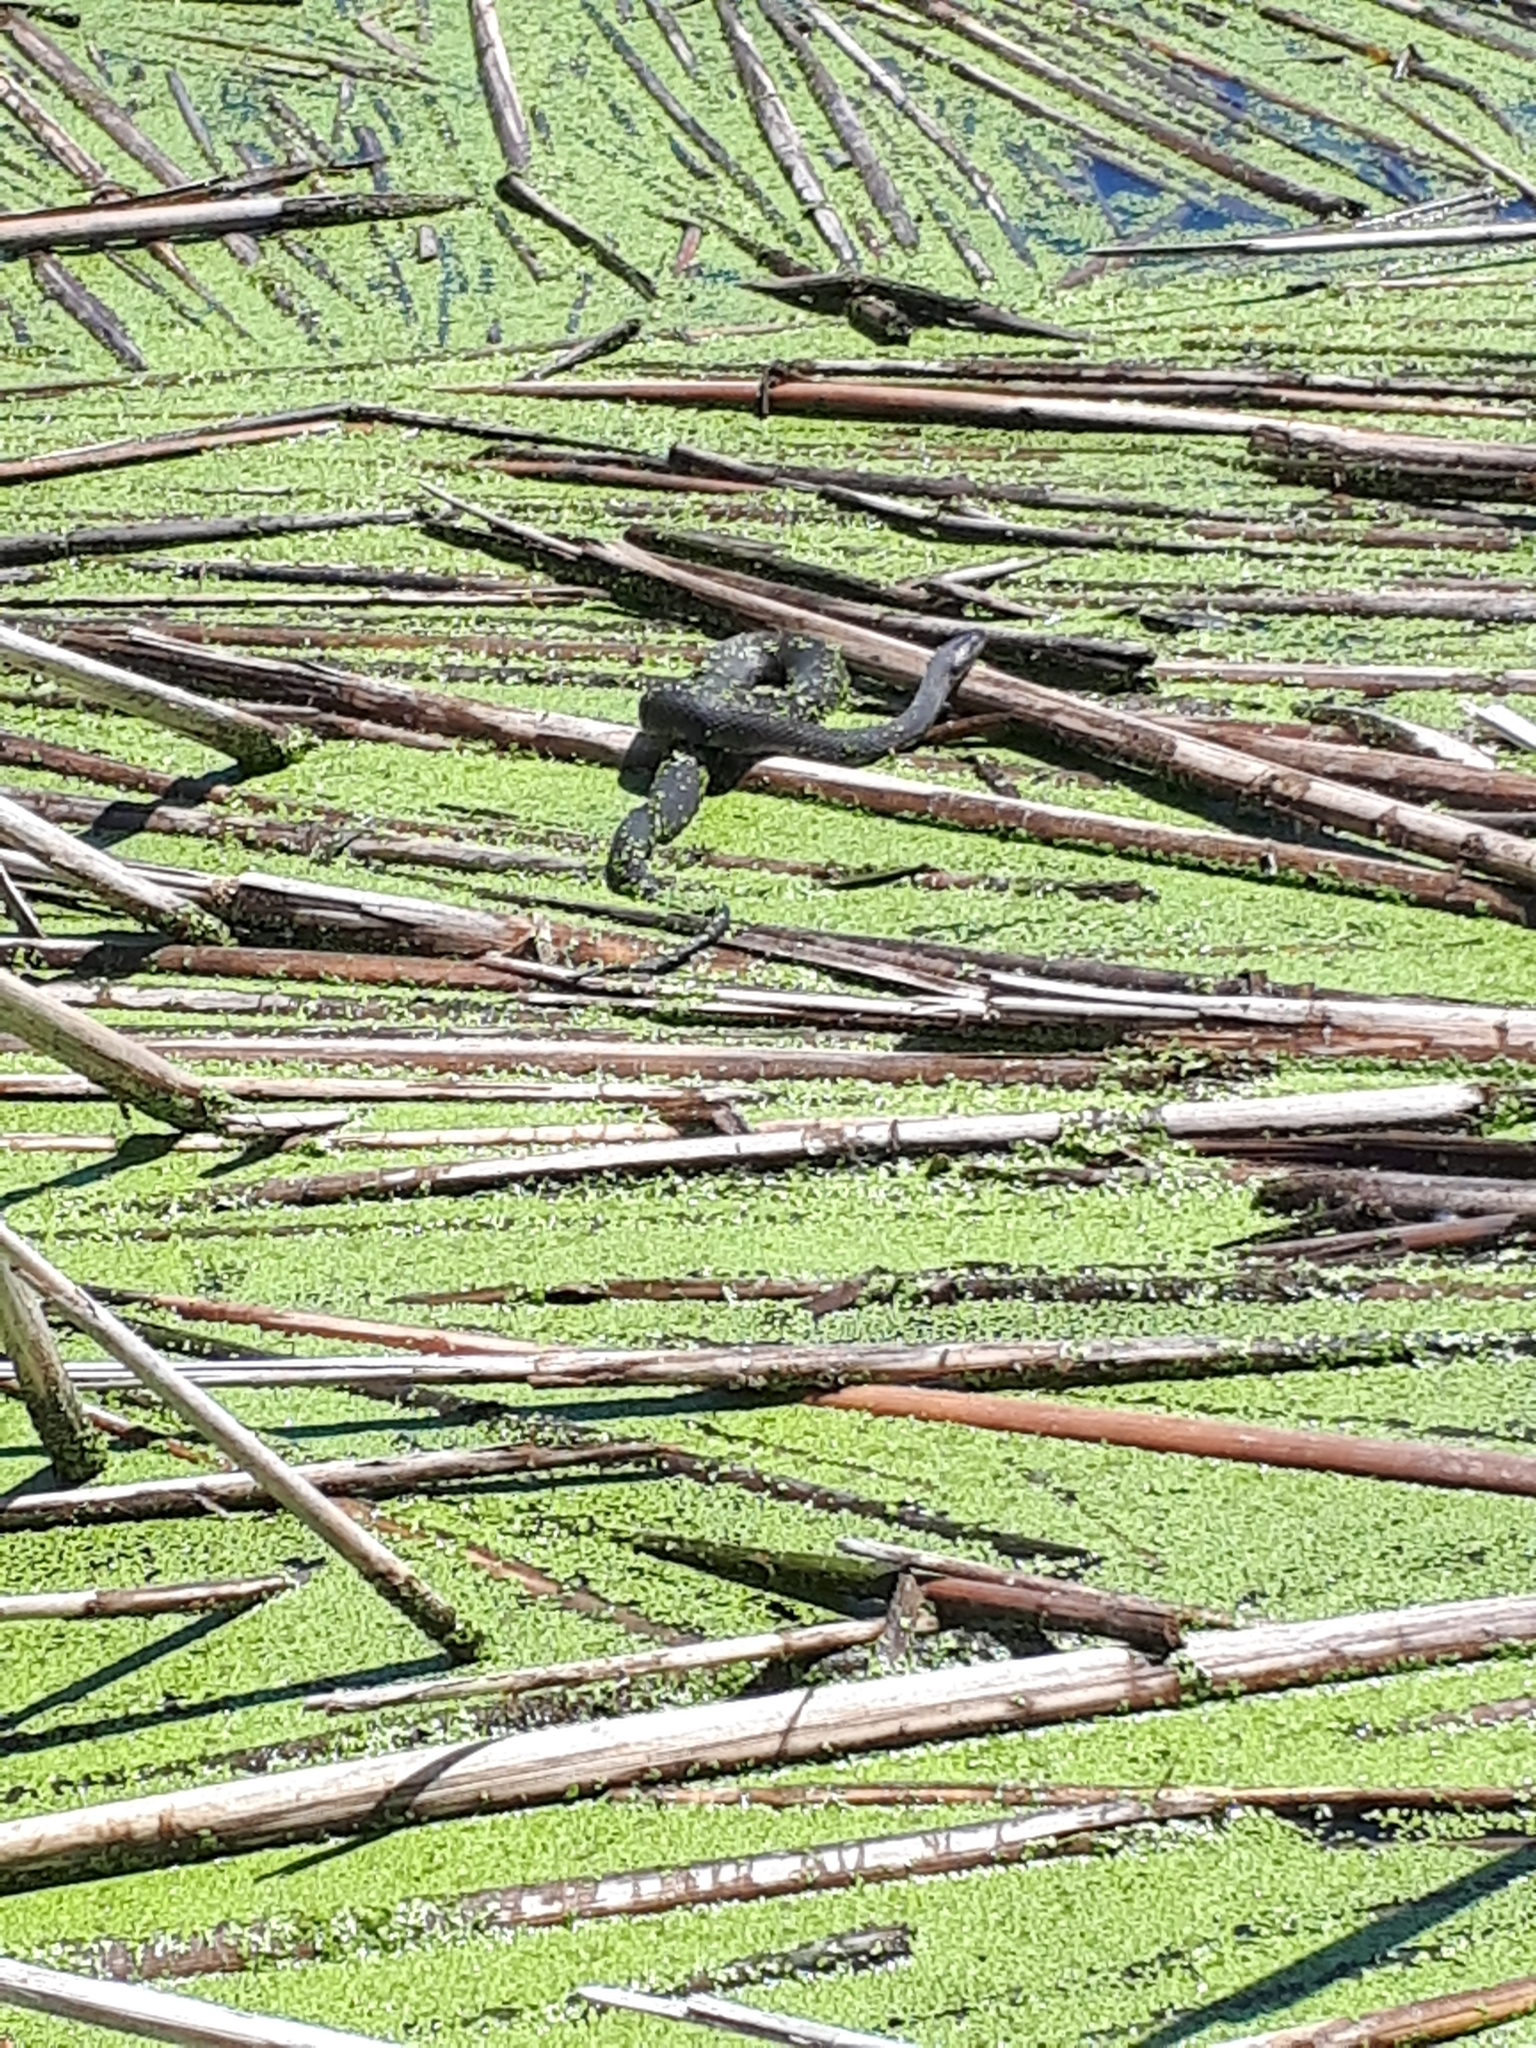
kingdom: Animalia
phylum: Chordata
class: Squamata
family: Colubridae
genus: Nerodia
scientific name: Nerodia sipedon
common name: Northern water snake
